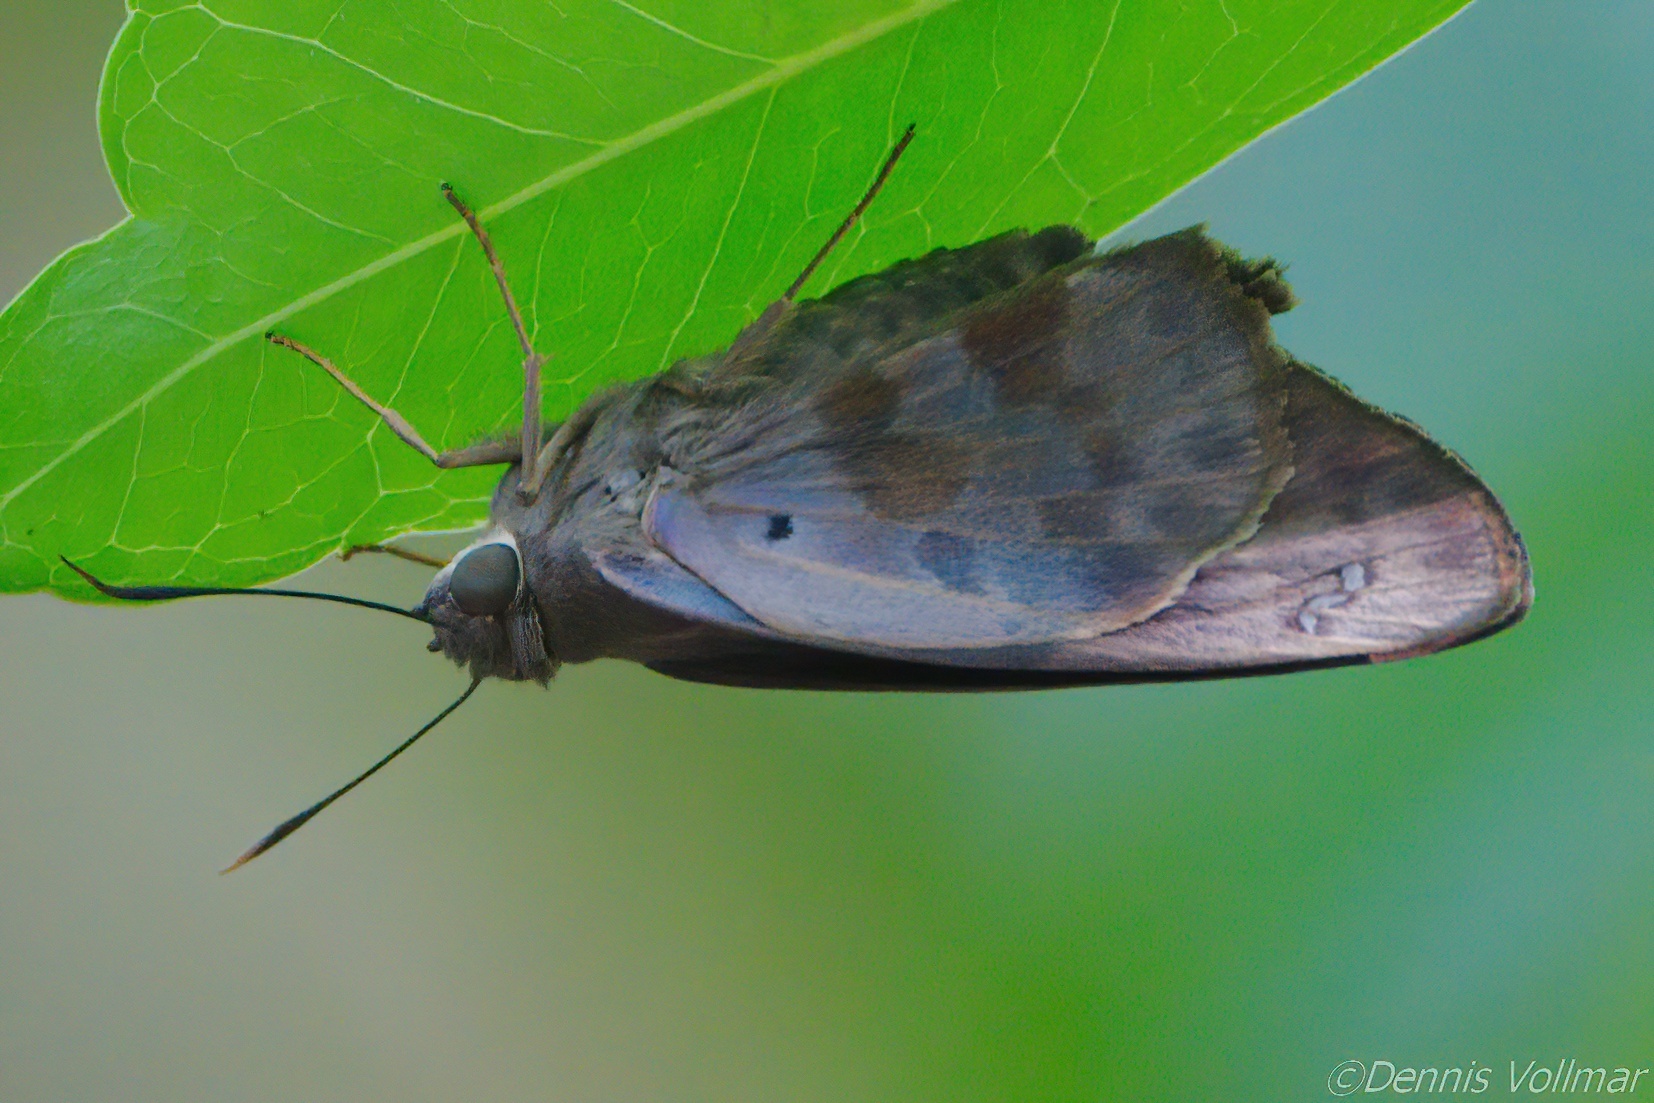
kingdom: Animalia
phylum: Arthropoda
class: Insecta
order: Lepidoptera
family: Hesperiidae
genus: Polygonus
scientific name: Polygonus leo
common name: Hammoch skipper
